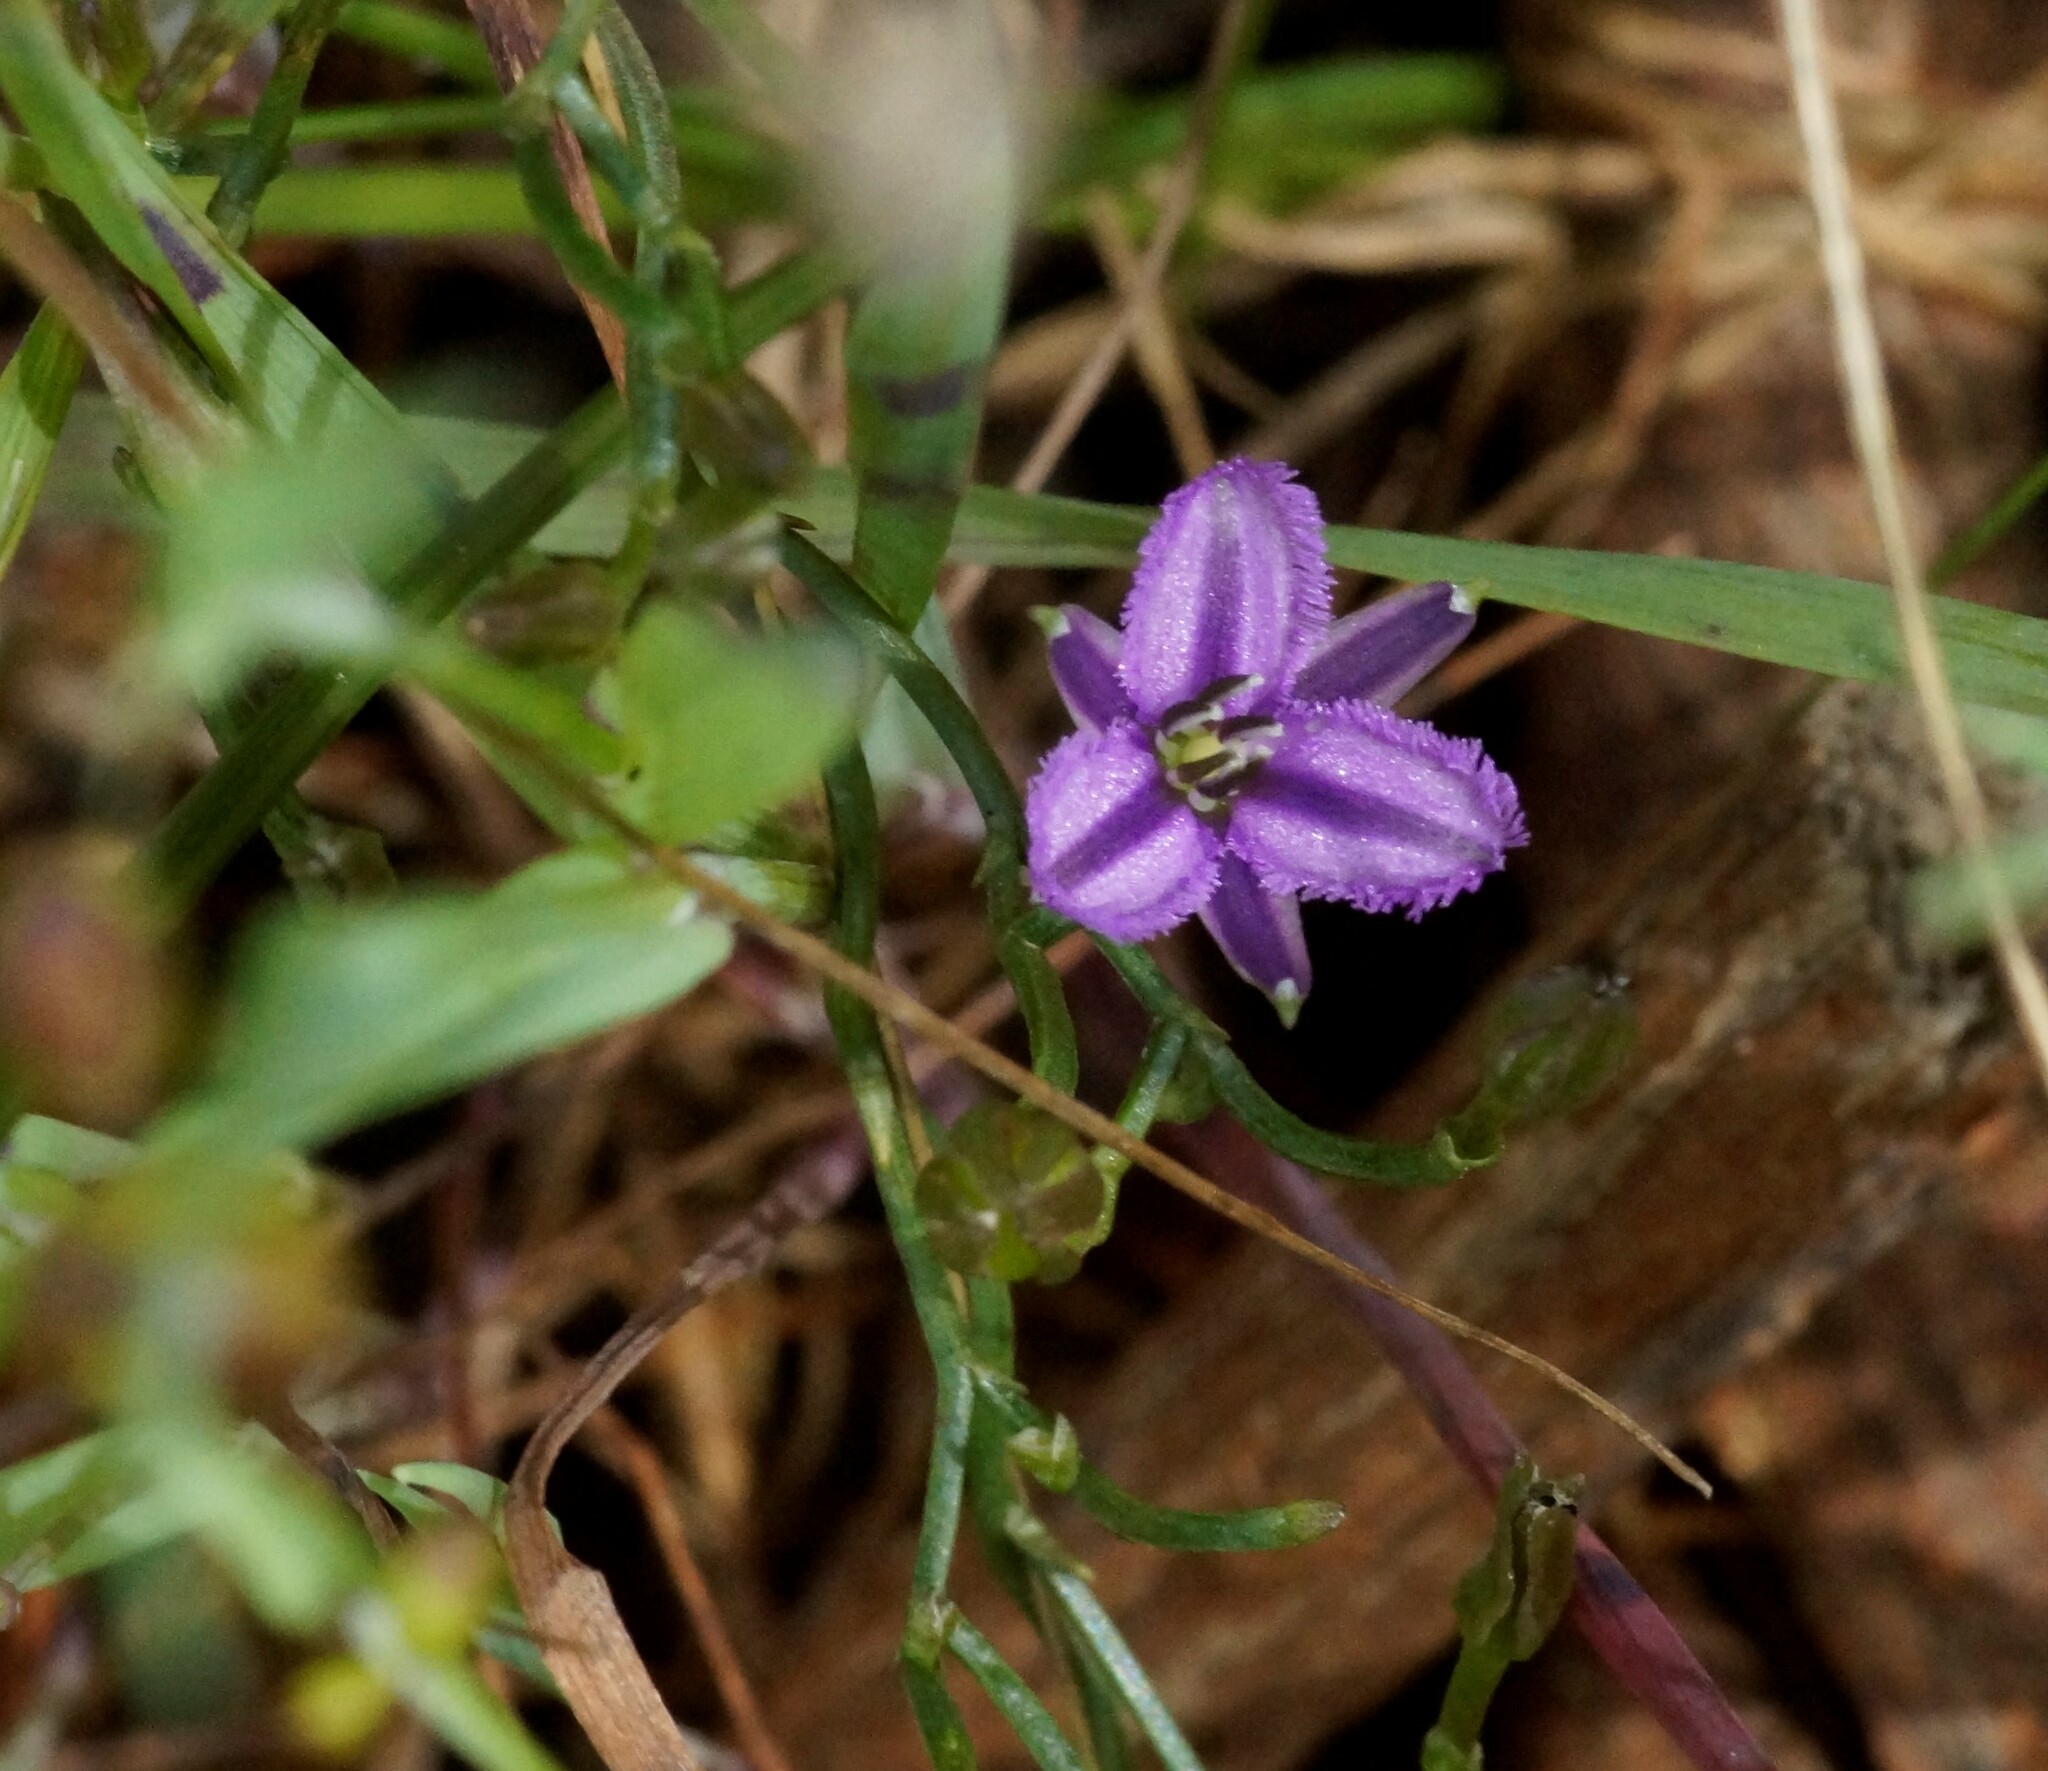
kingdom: Plantae
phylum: Tracheophyta
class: Liliopsida
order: Asparagales
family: Asparagaceae
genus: Thysanotus
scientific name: Thysanotus patersonii
